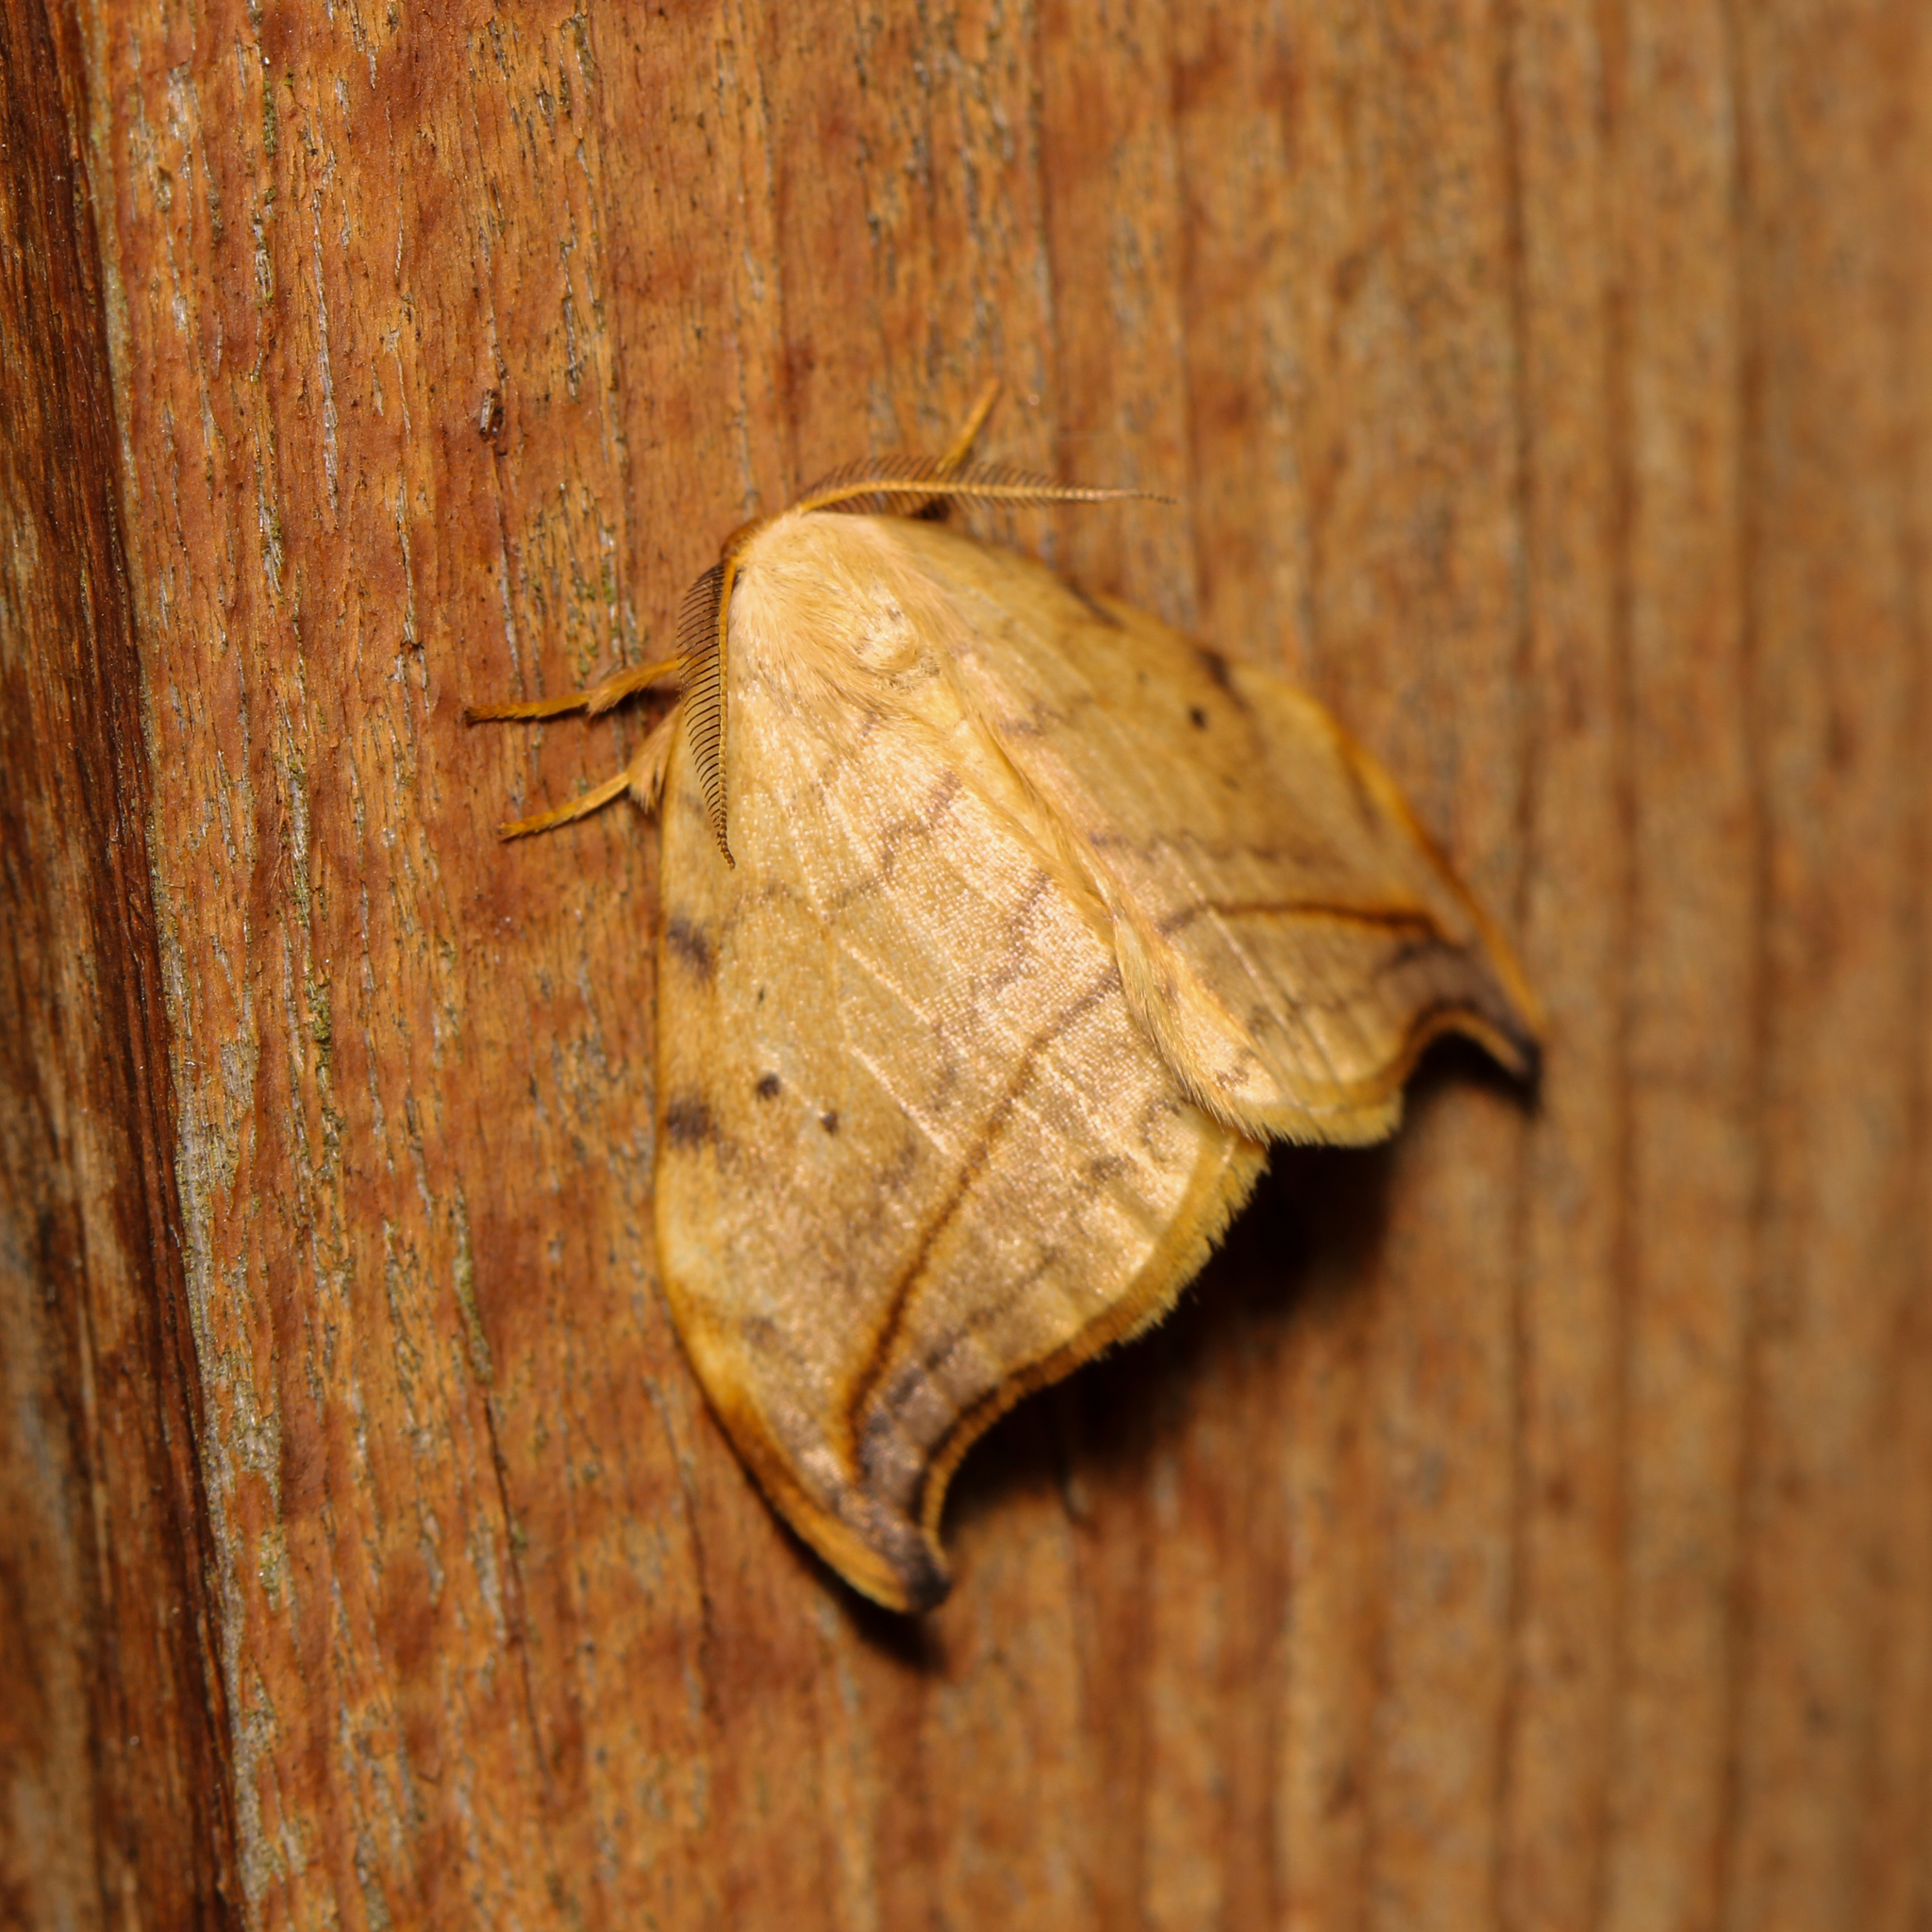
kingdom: Animalia
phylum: Arthropoda
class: Insecta
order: Lepidoptera
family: Drepanidae
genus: Drepana
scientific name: Drepana arcuata
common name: Arched hooktip moth
